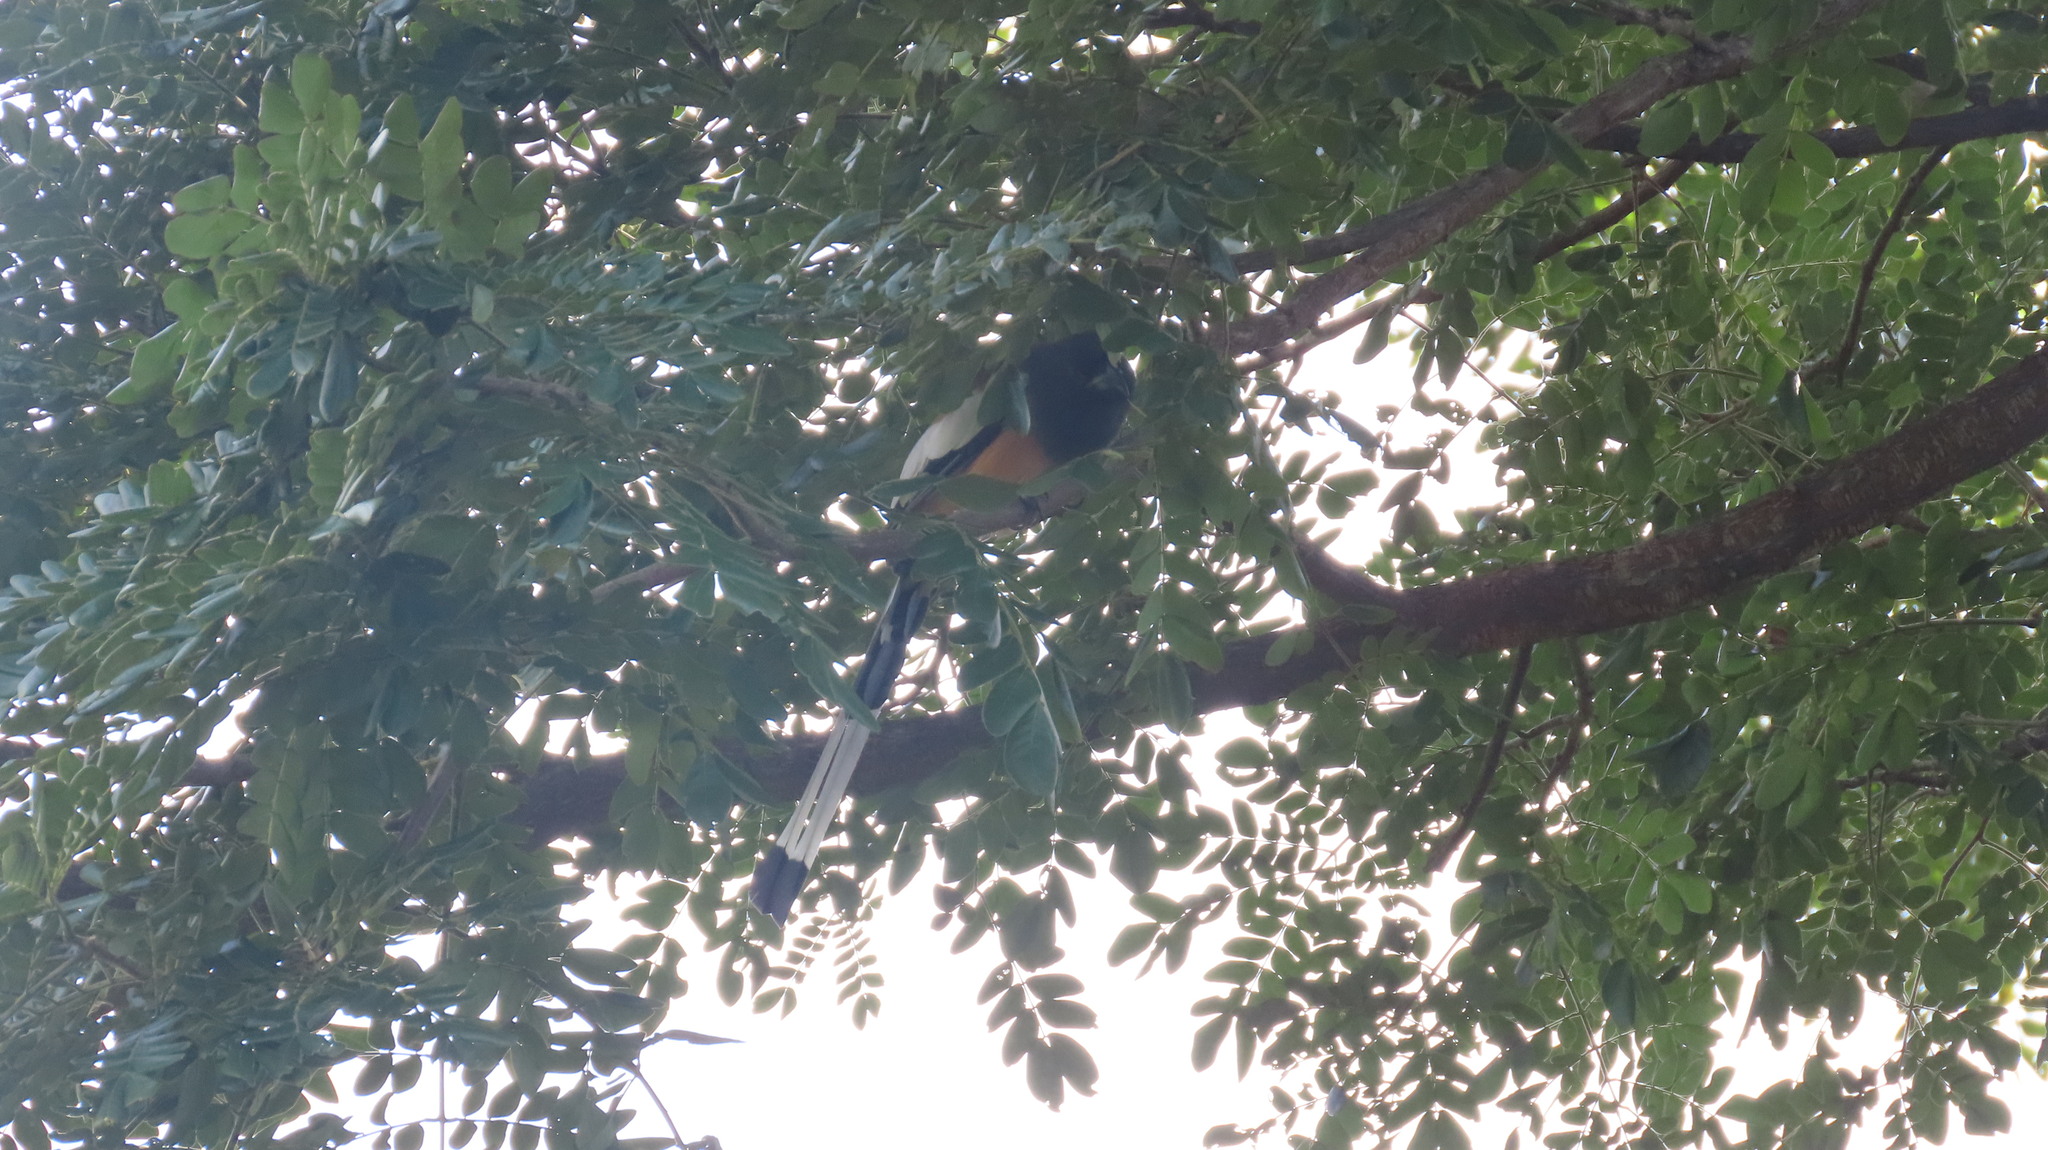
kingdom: Animalia
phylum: Chordata
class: Aves
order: Passeriformes
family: Corvidae
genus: Dendrocitta
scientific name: Dendrocitta vagabunda
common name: Rufous treepie
